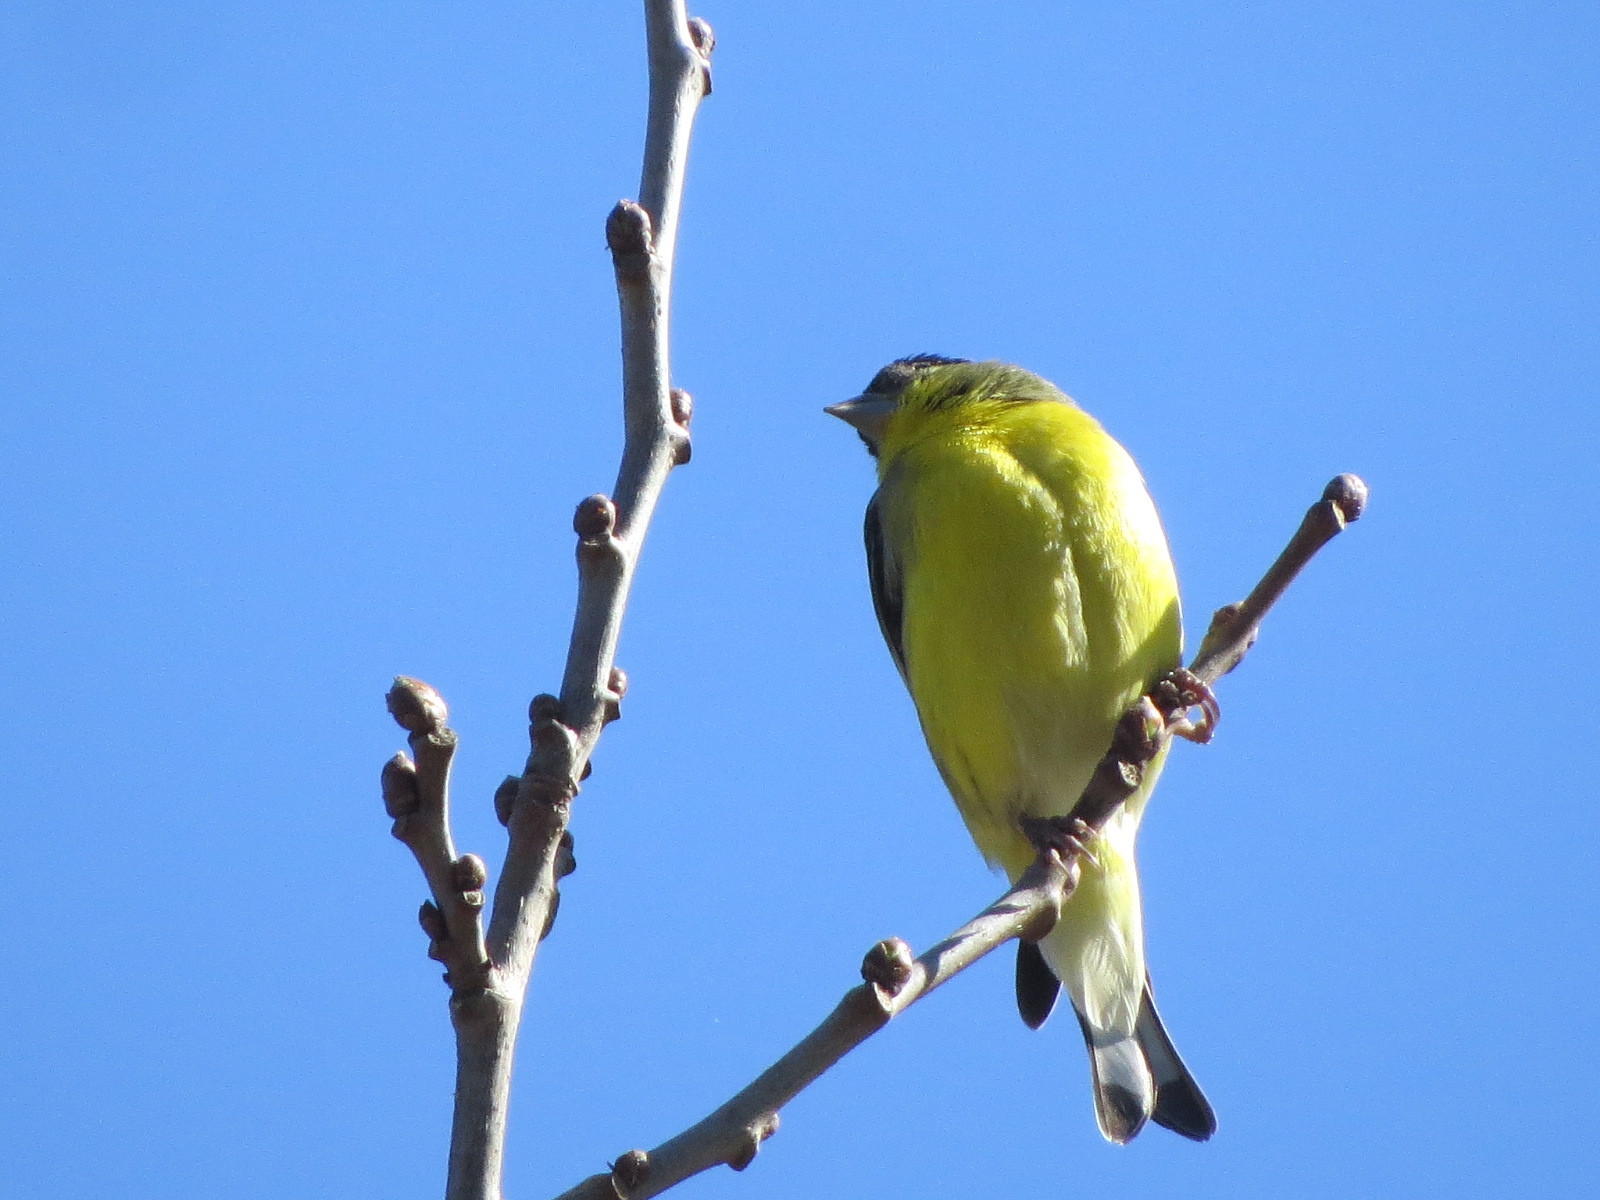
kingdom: Animalia
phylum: Chordata
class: Aves
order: Passeriformes
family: Fringillidae
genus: Spinus
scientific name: Spinus psaltria
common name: Lesser goldfinch
